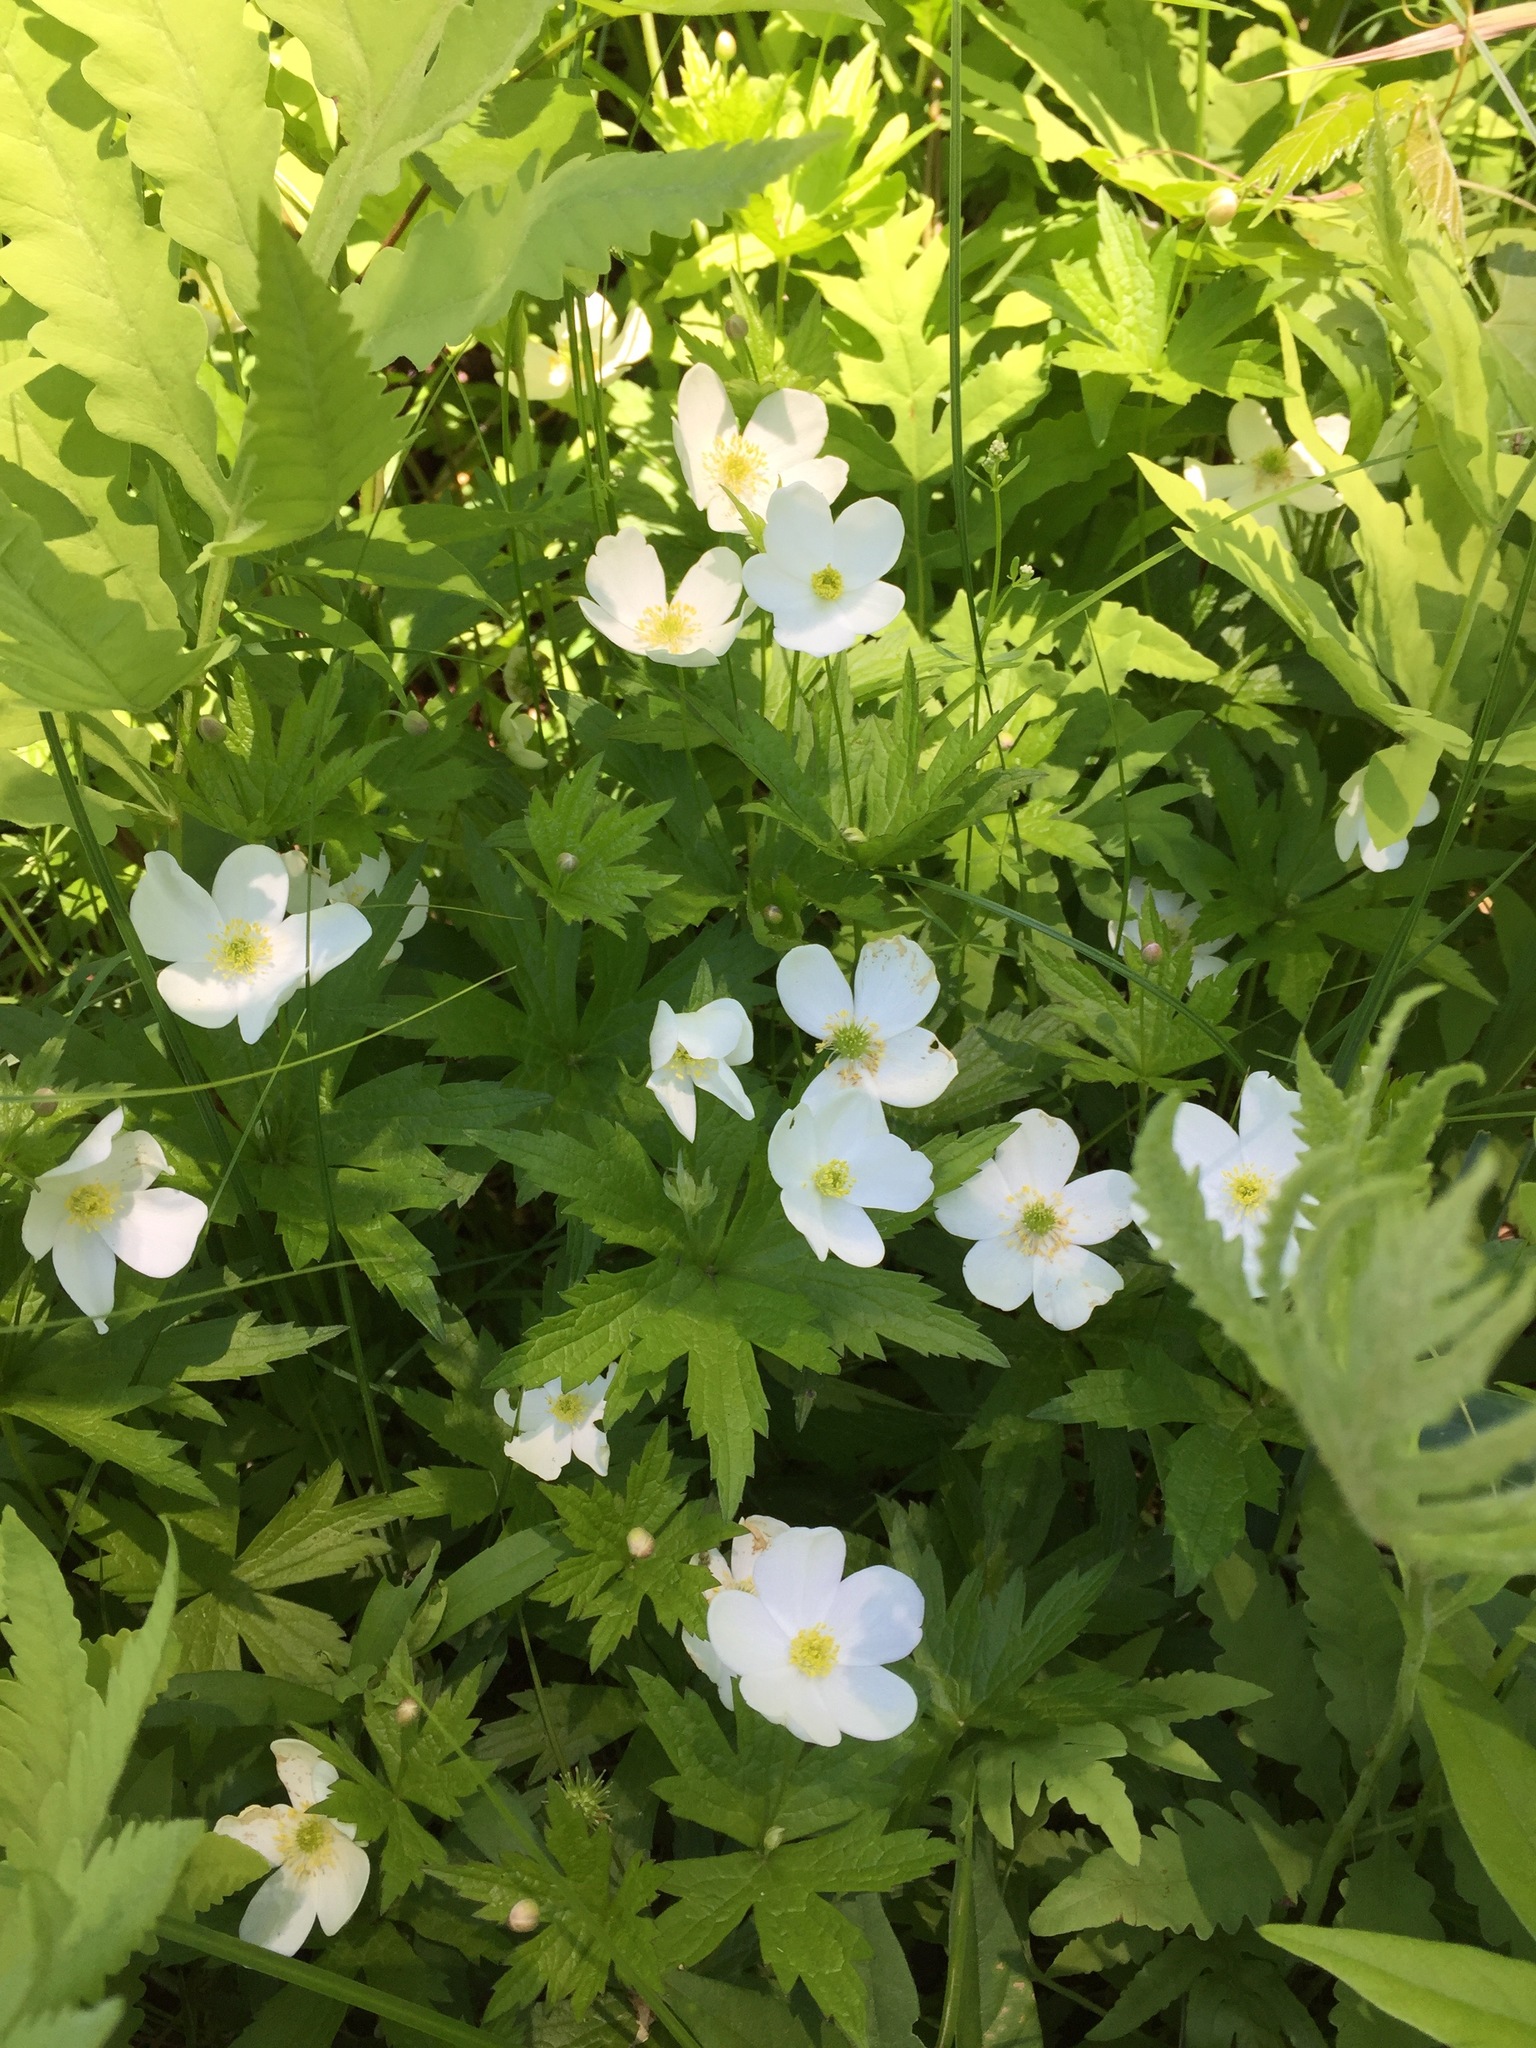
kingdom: Plantae
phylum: Tracheophyta
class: Magnoliopsida
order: Ranunculales
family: Ranunculaceae
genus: Anemonastrum
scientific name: Anemonastrum canadense
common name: Canada anemone
